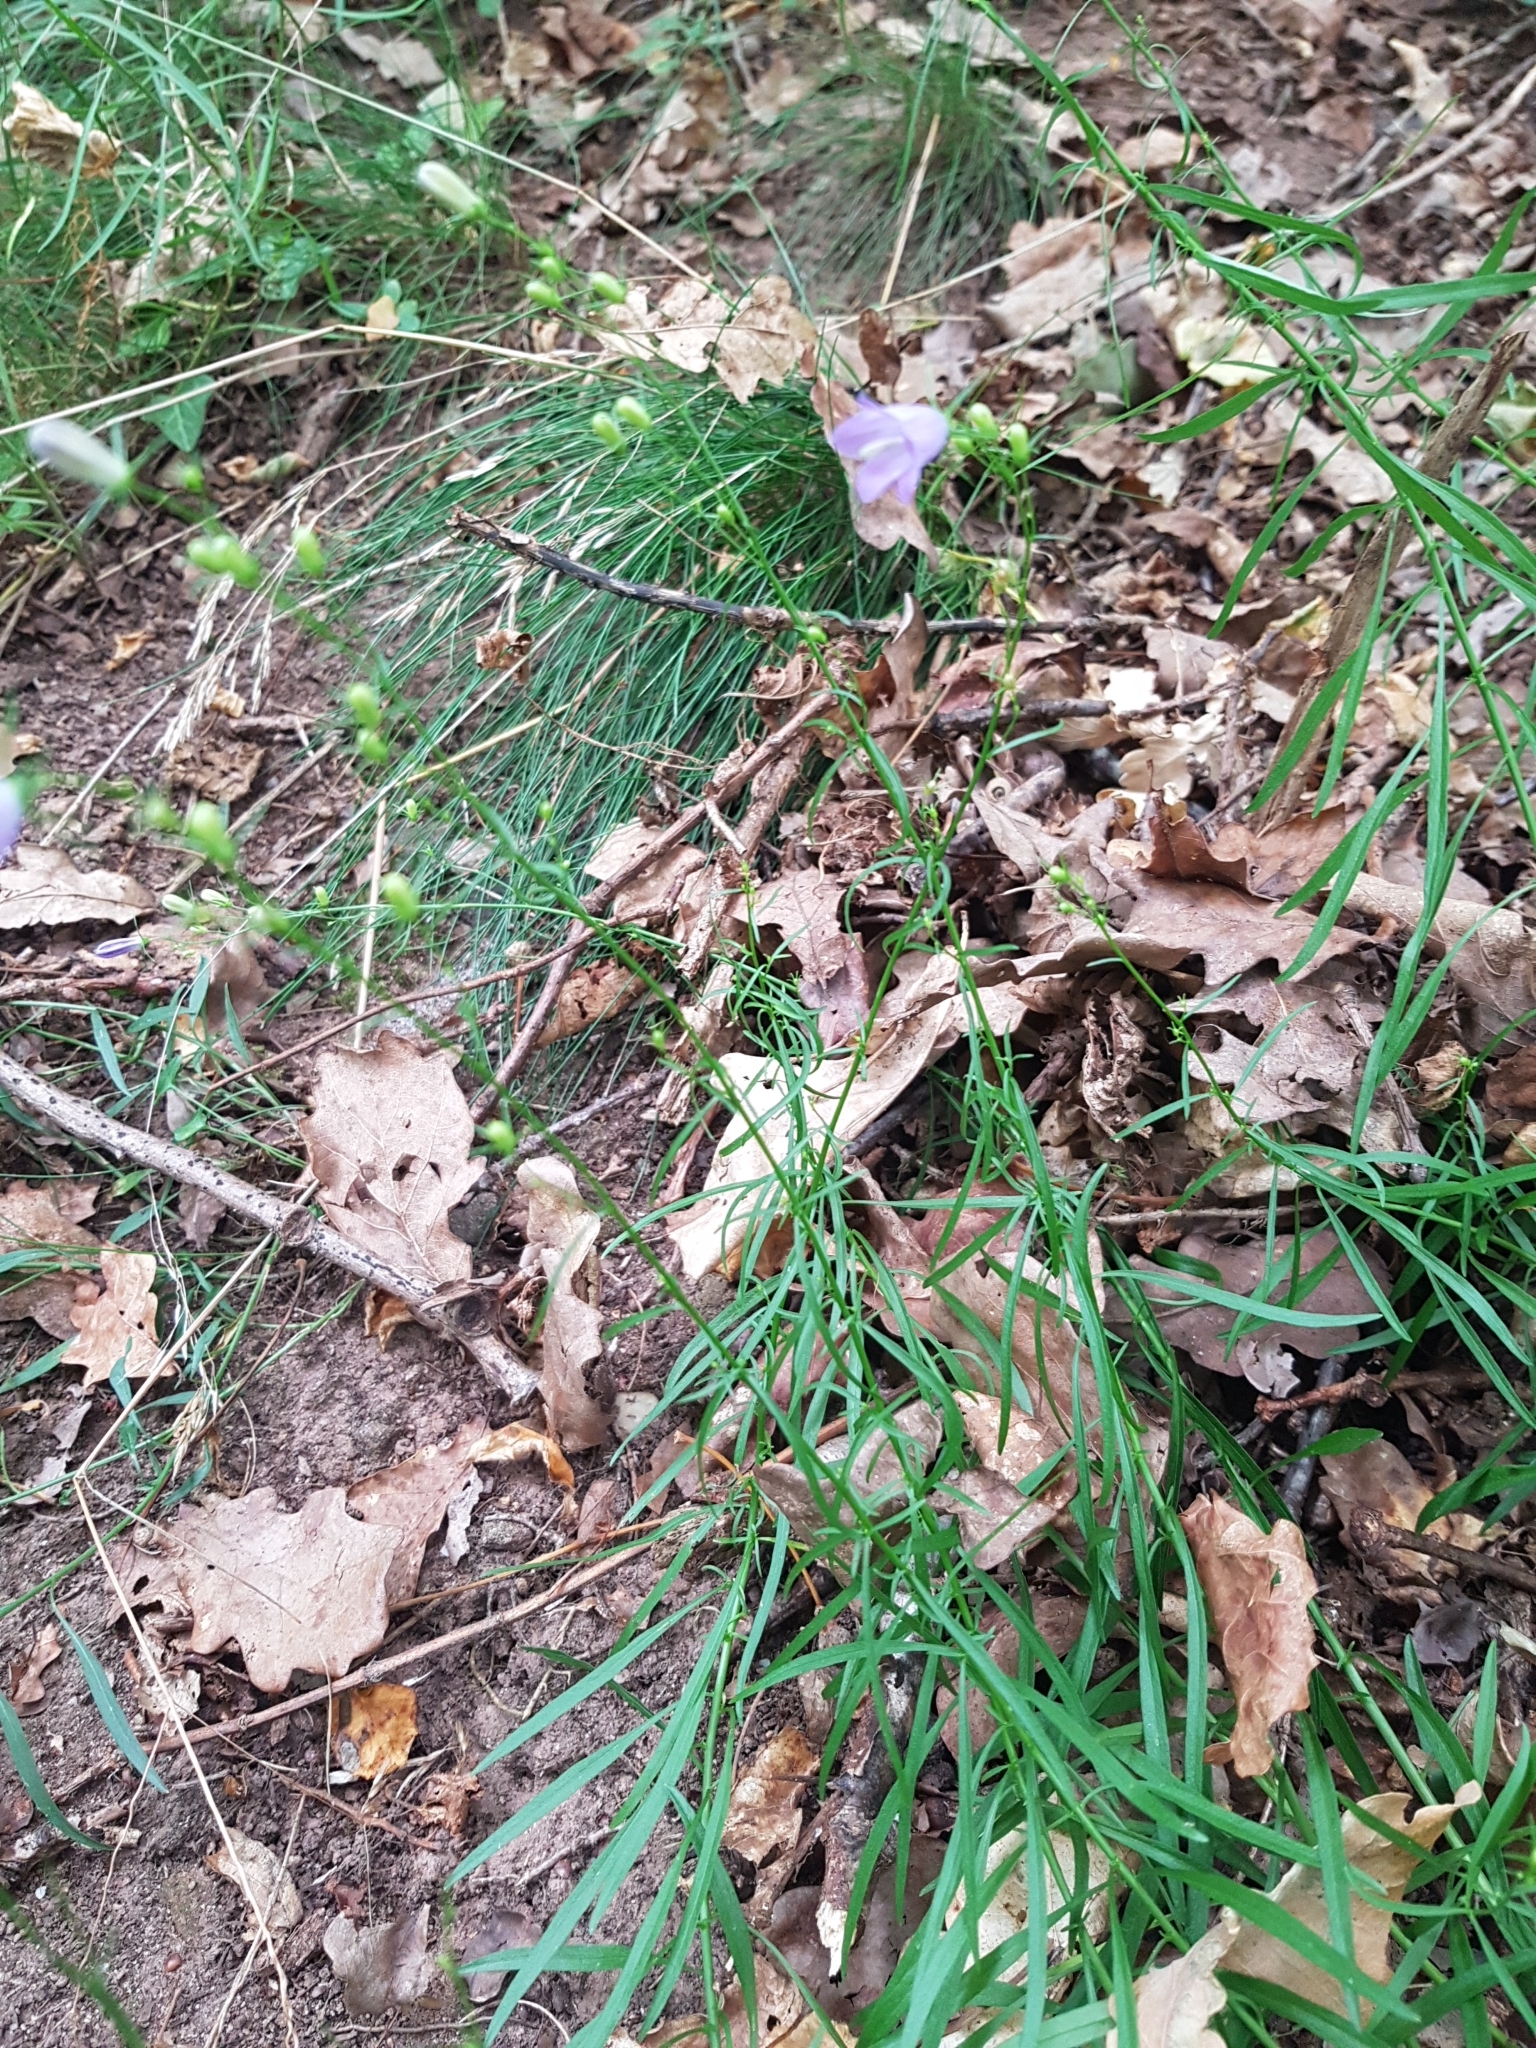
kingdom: Plantae
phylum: Tracheophyta
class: Magnoliopsida
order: Asterales
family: Campanulaceae
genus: Campanula
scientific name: Campanula rotundifolia
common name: Harebell
